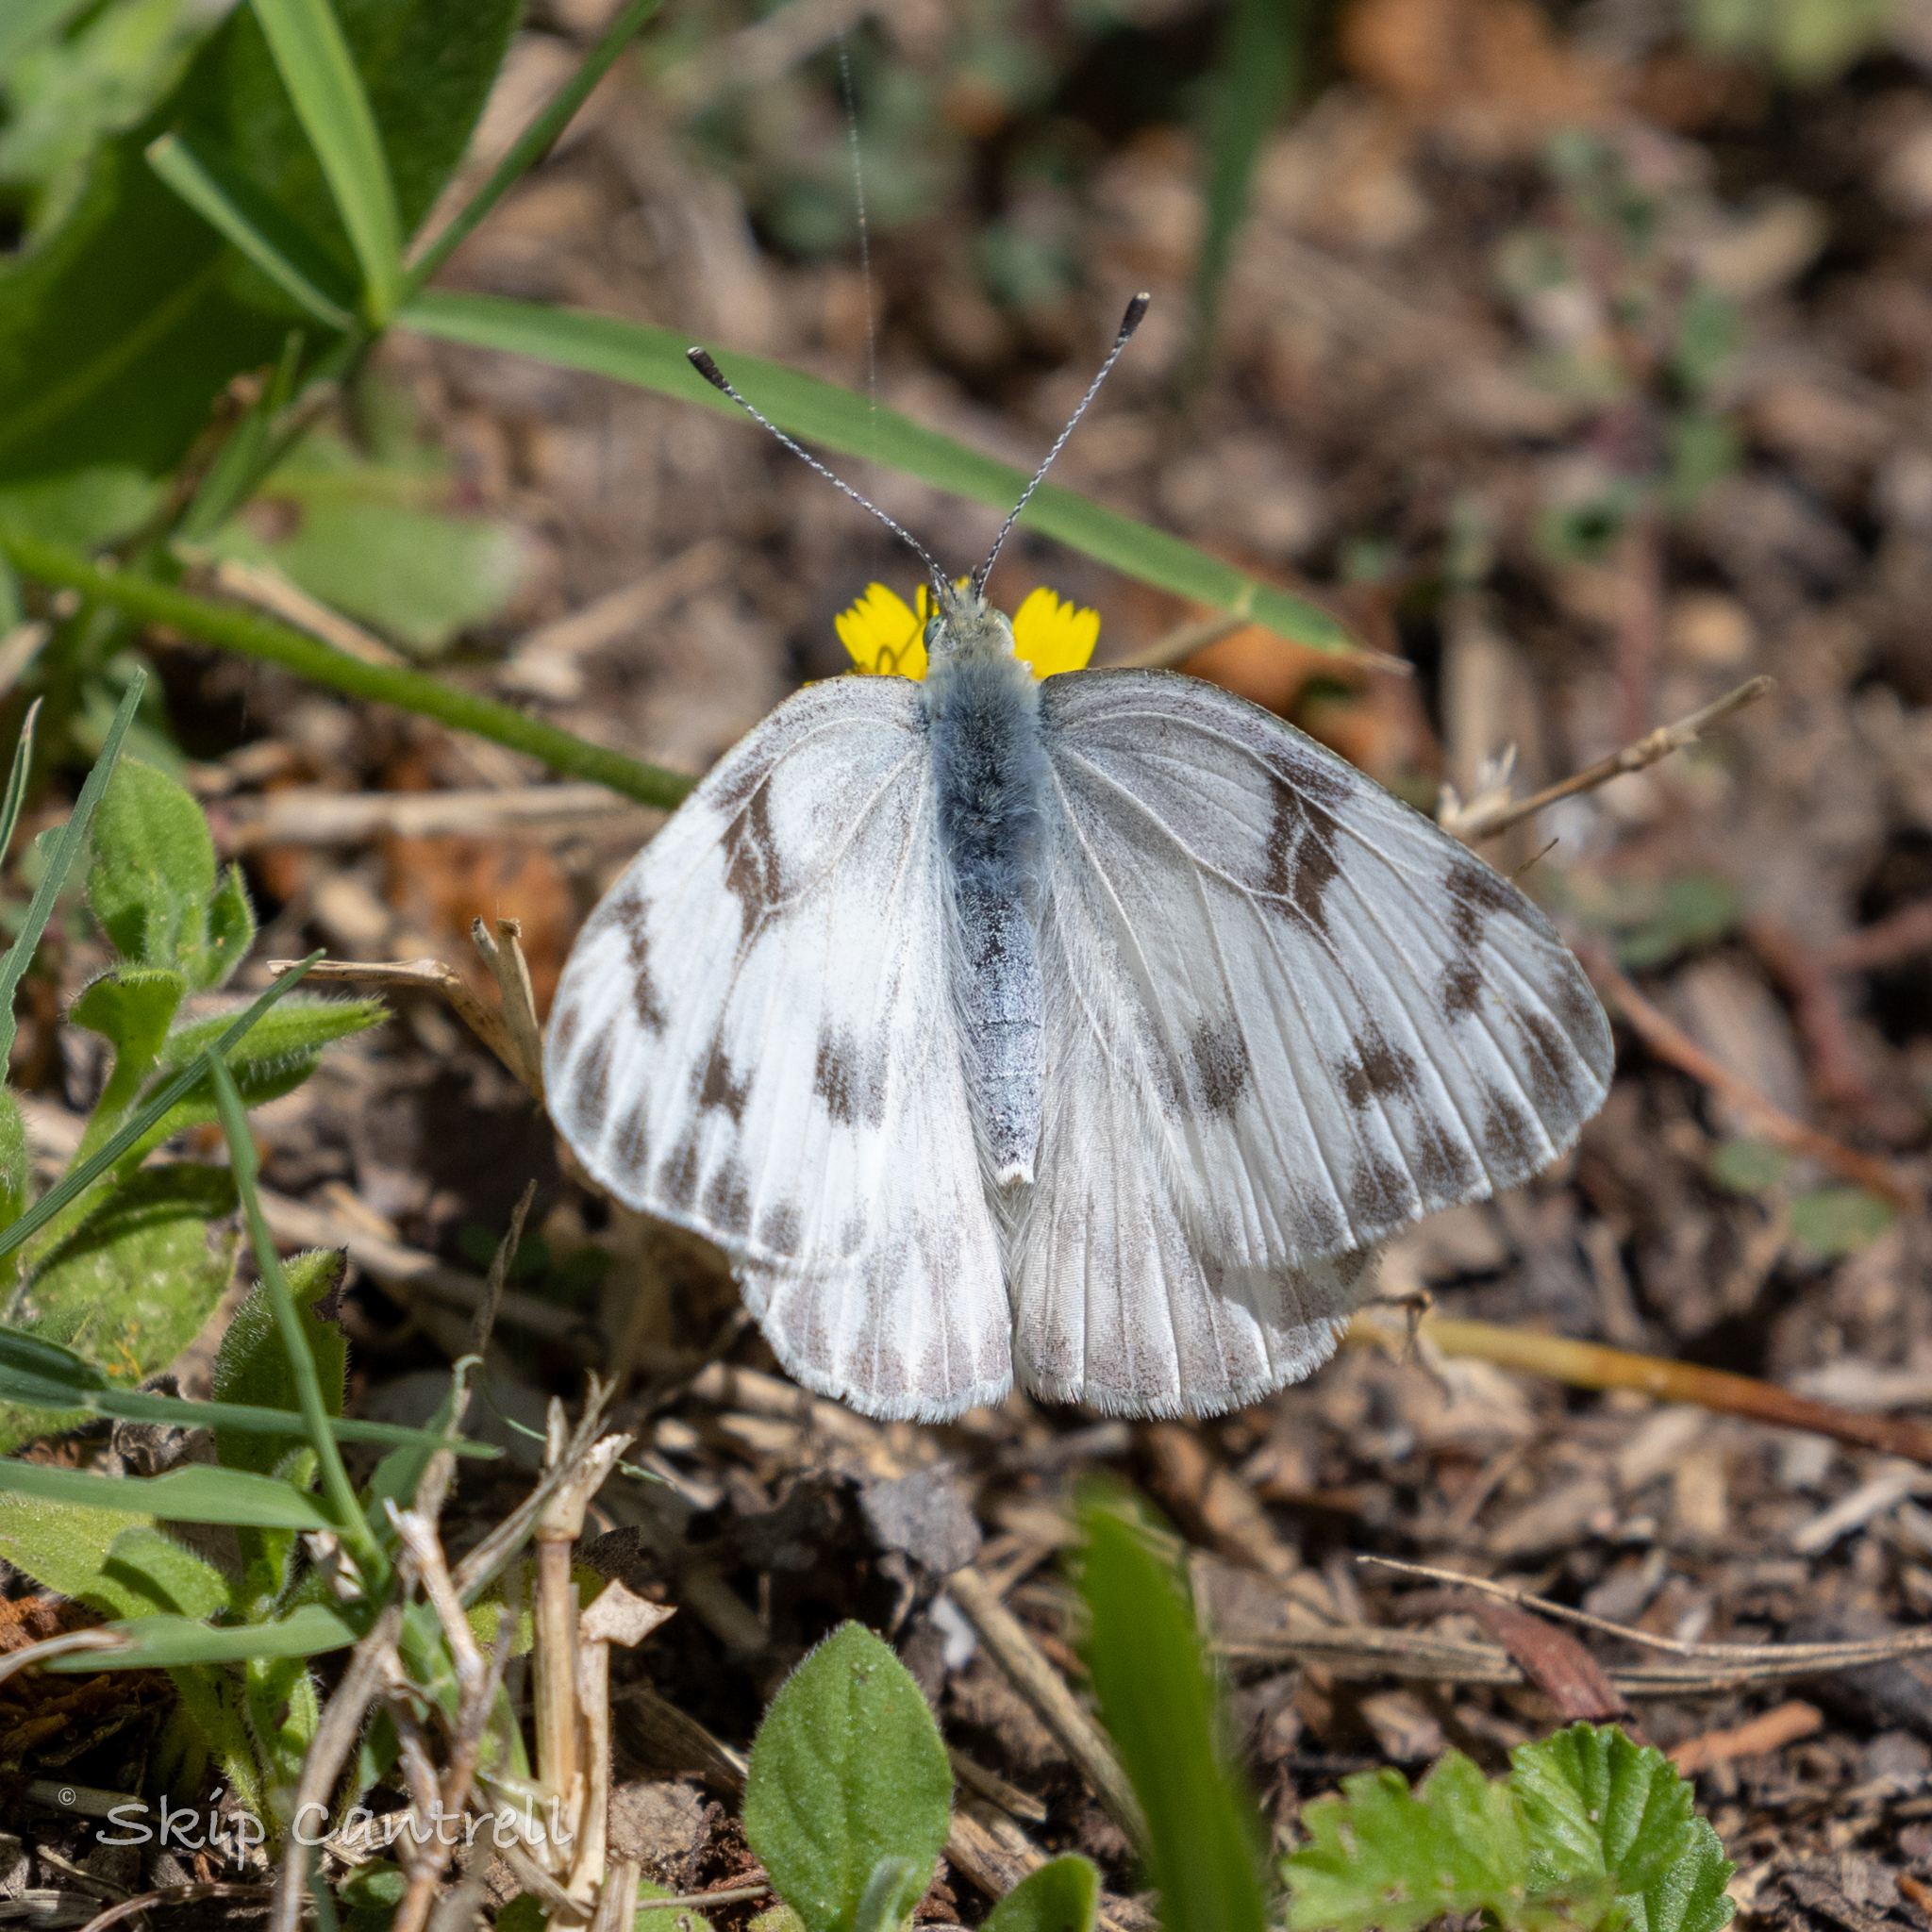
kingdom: Animalia
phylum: Arthropoda
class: Insecta
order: Lepidoptera
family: Pieridae
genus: Pontia
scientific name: Pontia protodice
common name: Checkered white
